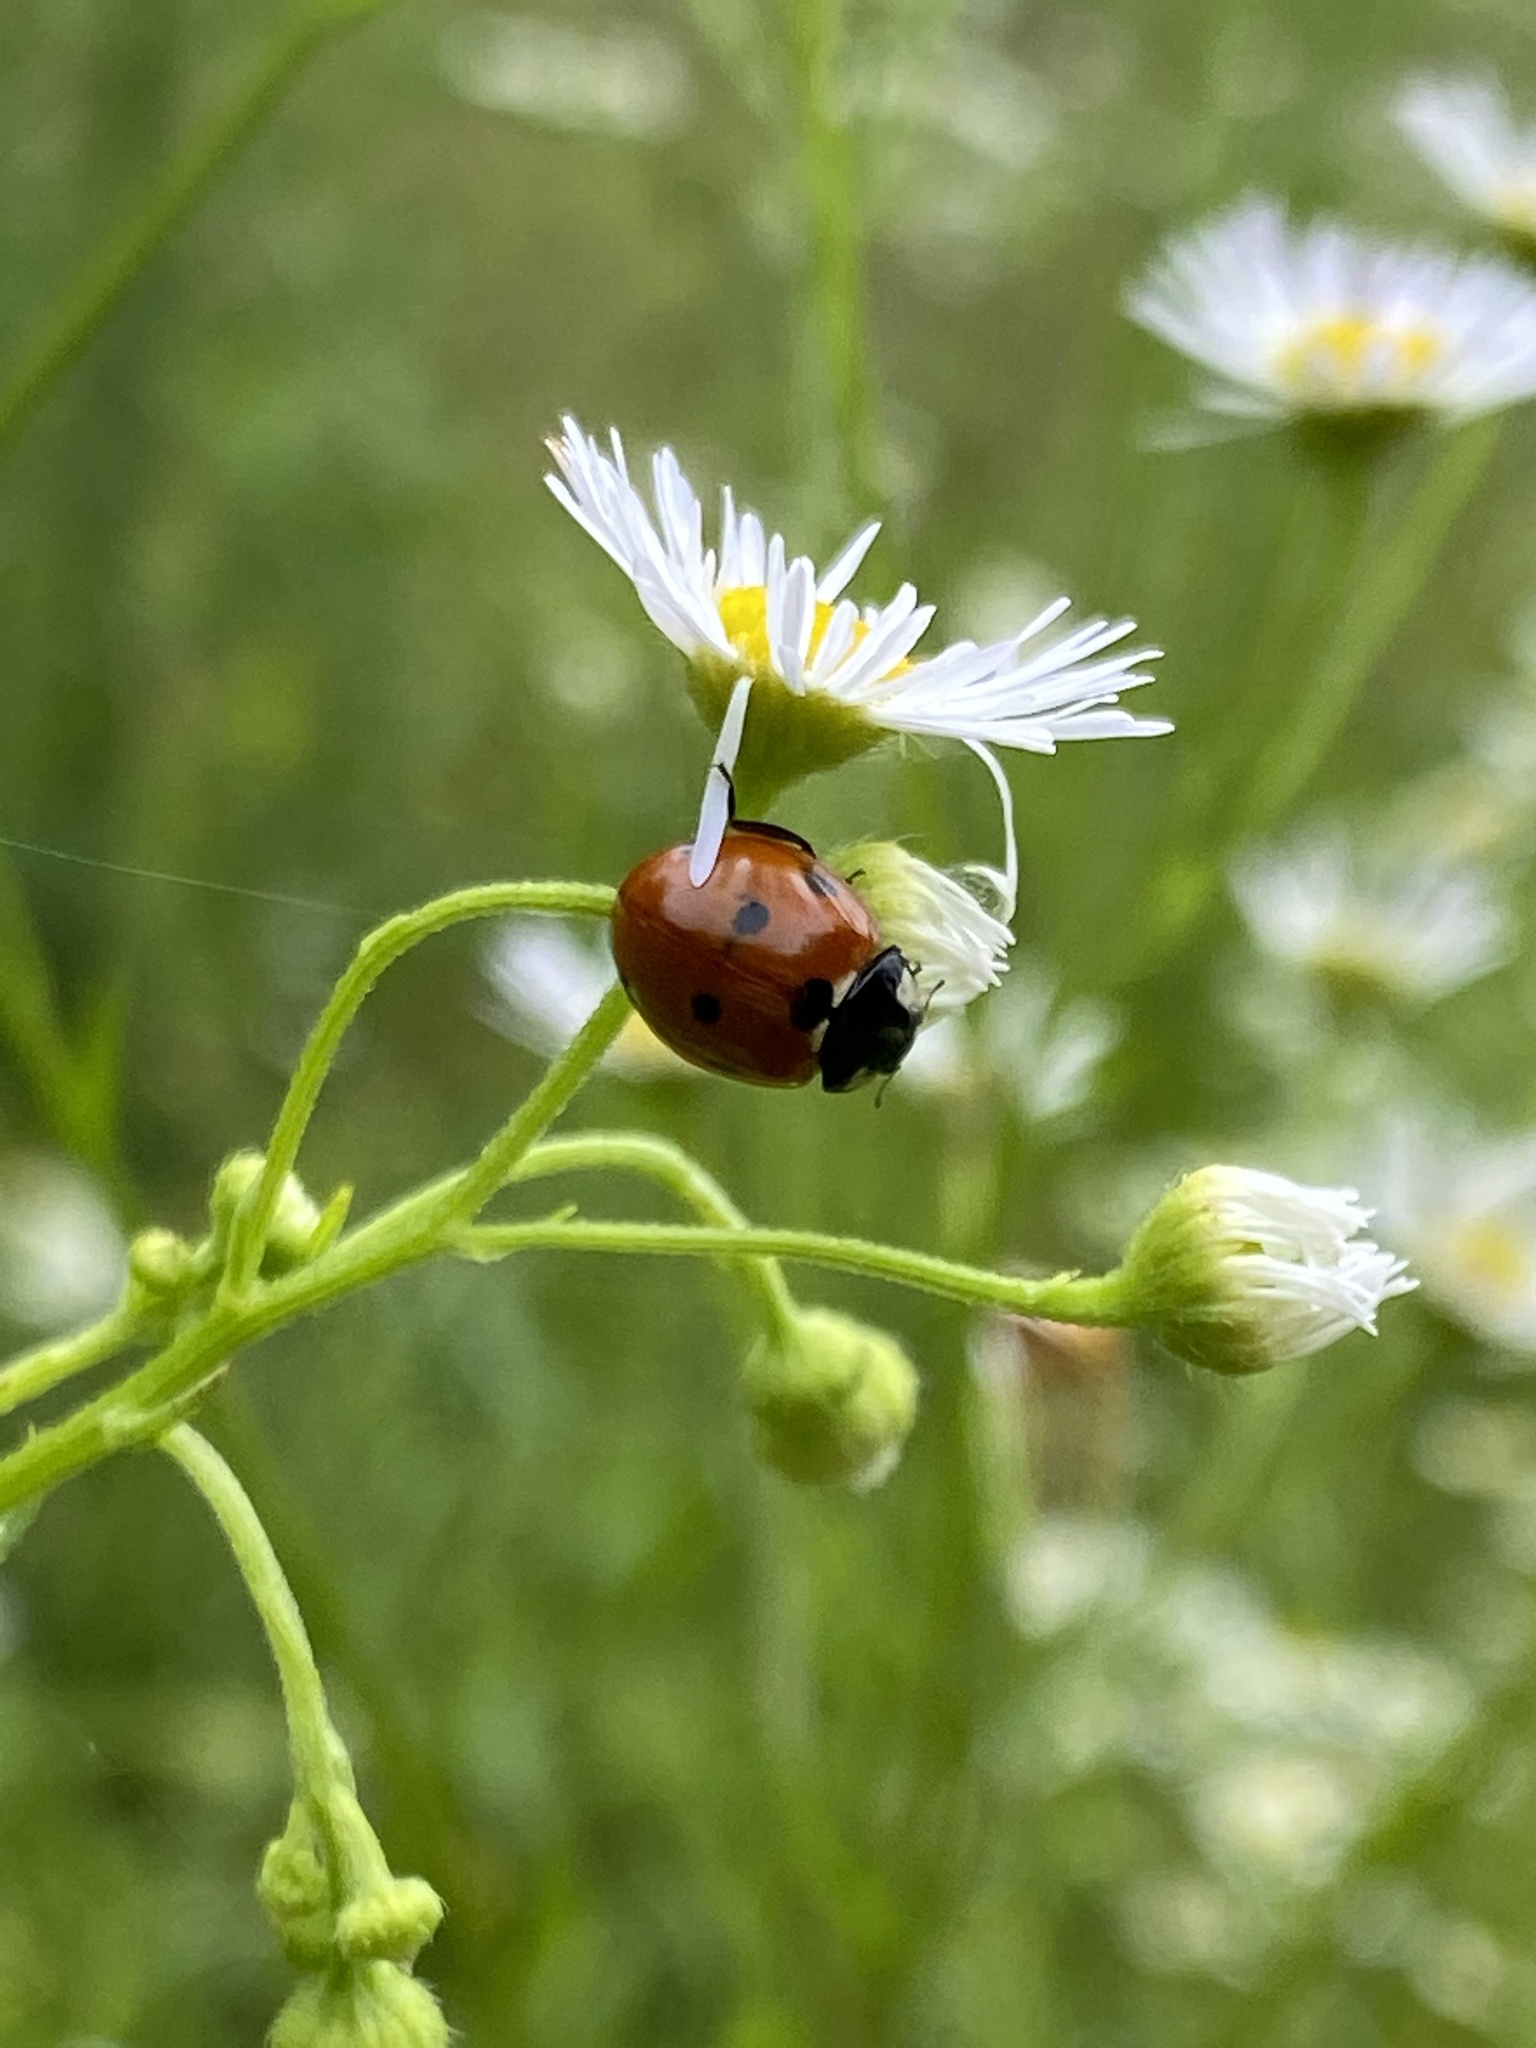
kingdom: Animalia
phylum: Arthropoda
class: Insecta
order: Coleoptera
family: Coccinellidae
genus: Coccinella
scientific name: Coccinella septempunctata
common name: Sevenspotted lady beetle
